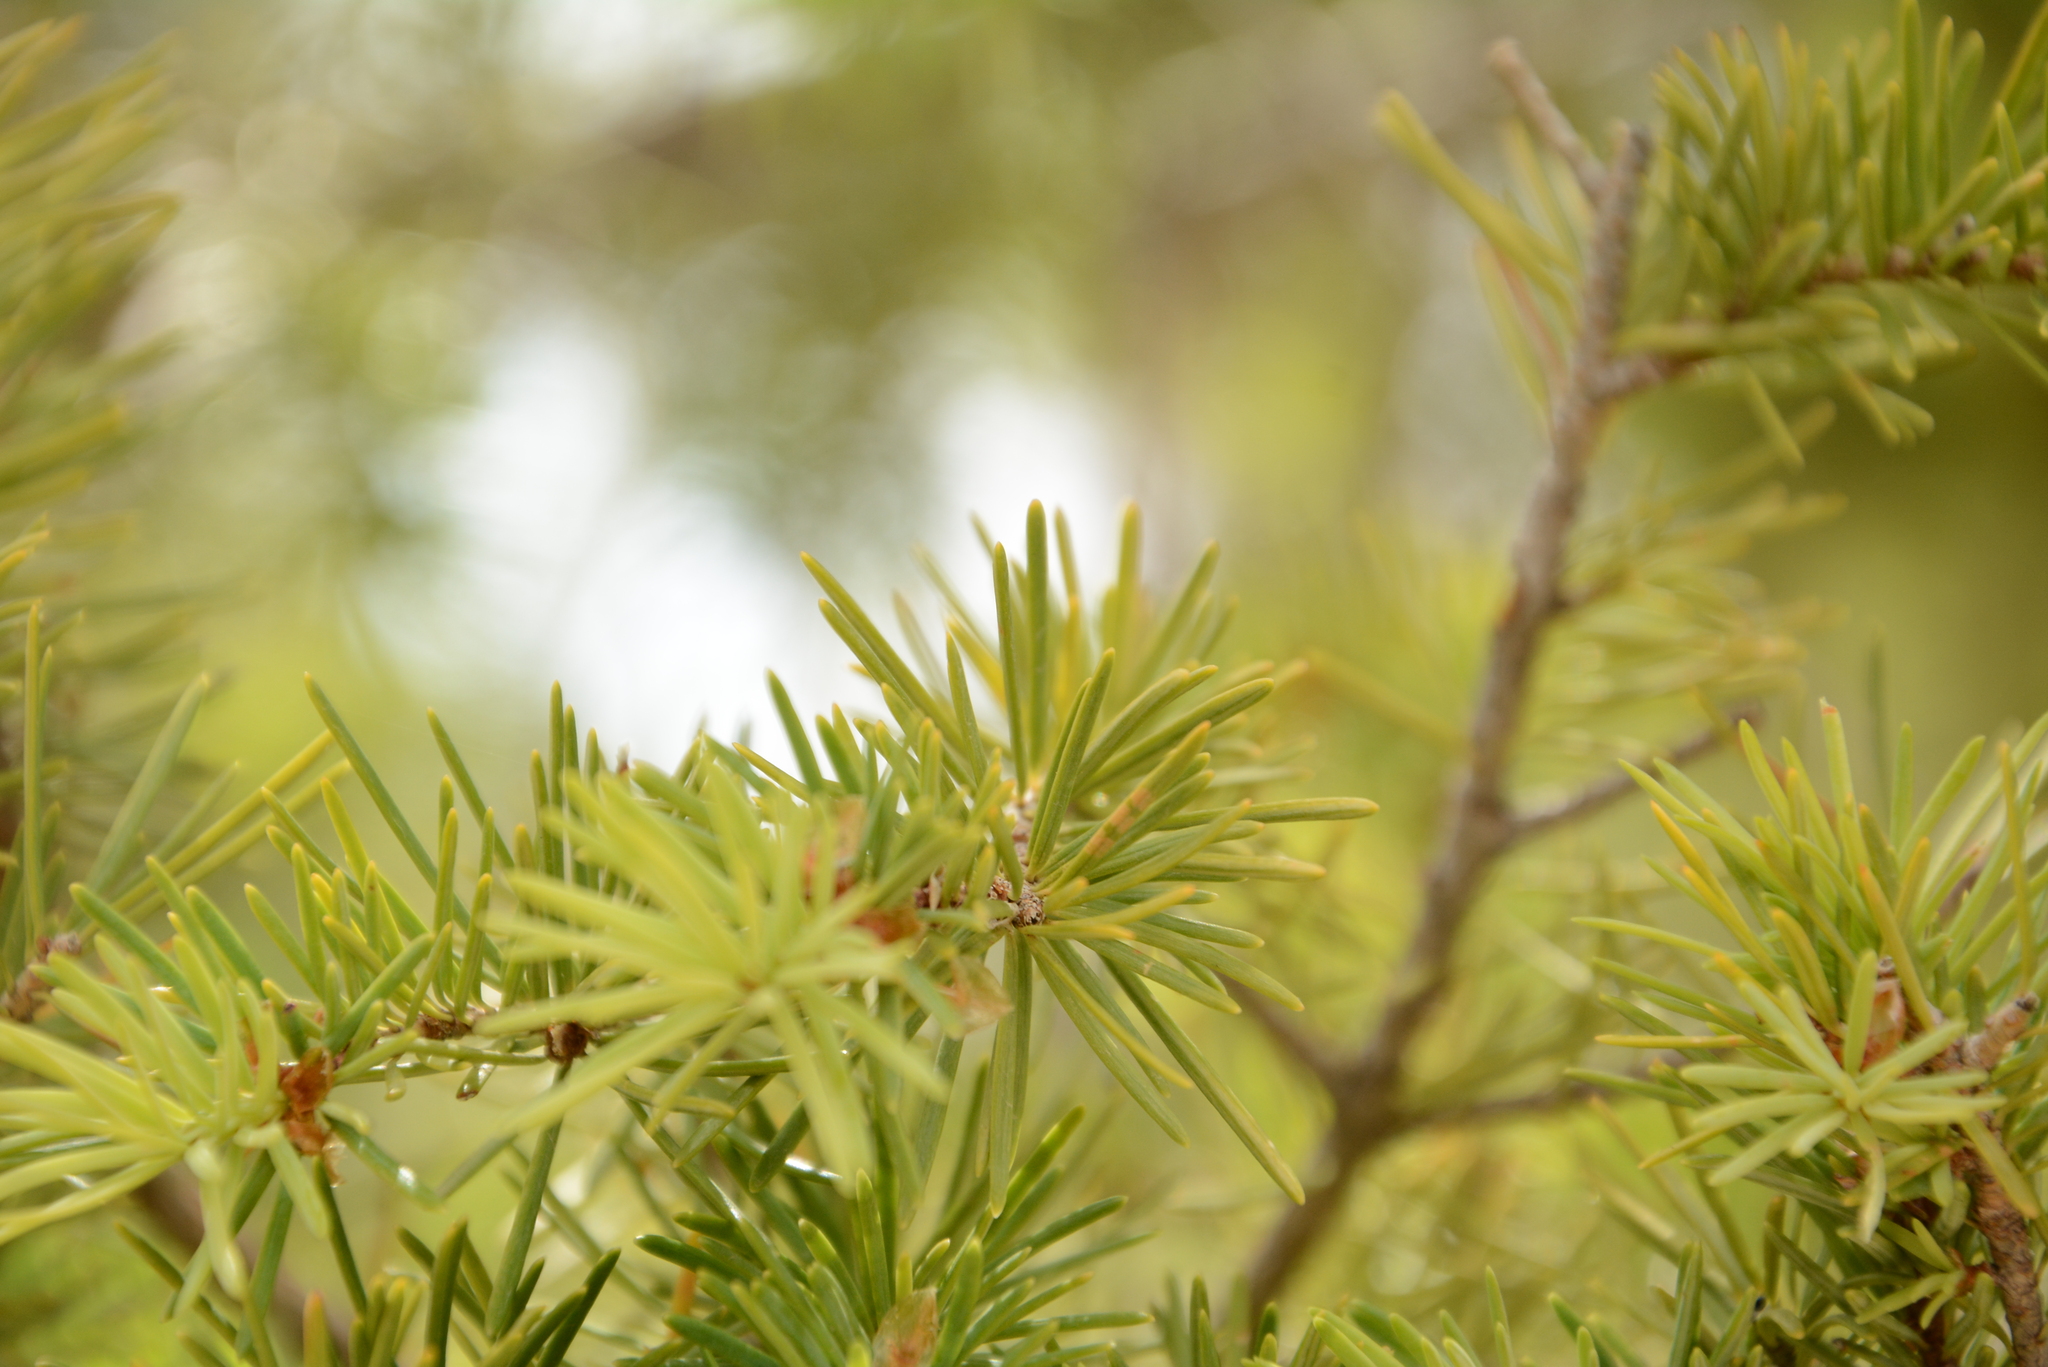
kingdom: Plantae
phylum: Tracheophyta
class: Pinopsida
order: Pinales
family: Pinaceae
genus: Pseudotsuga
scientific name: Pseudotsuga menziesii
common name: Douglas fir
